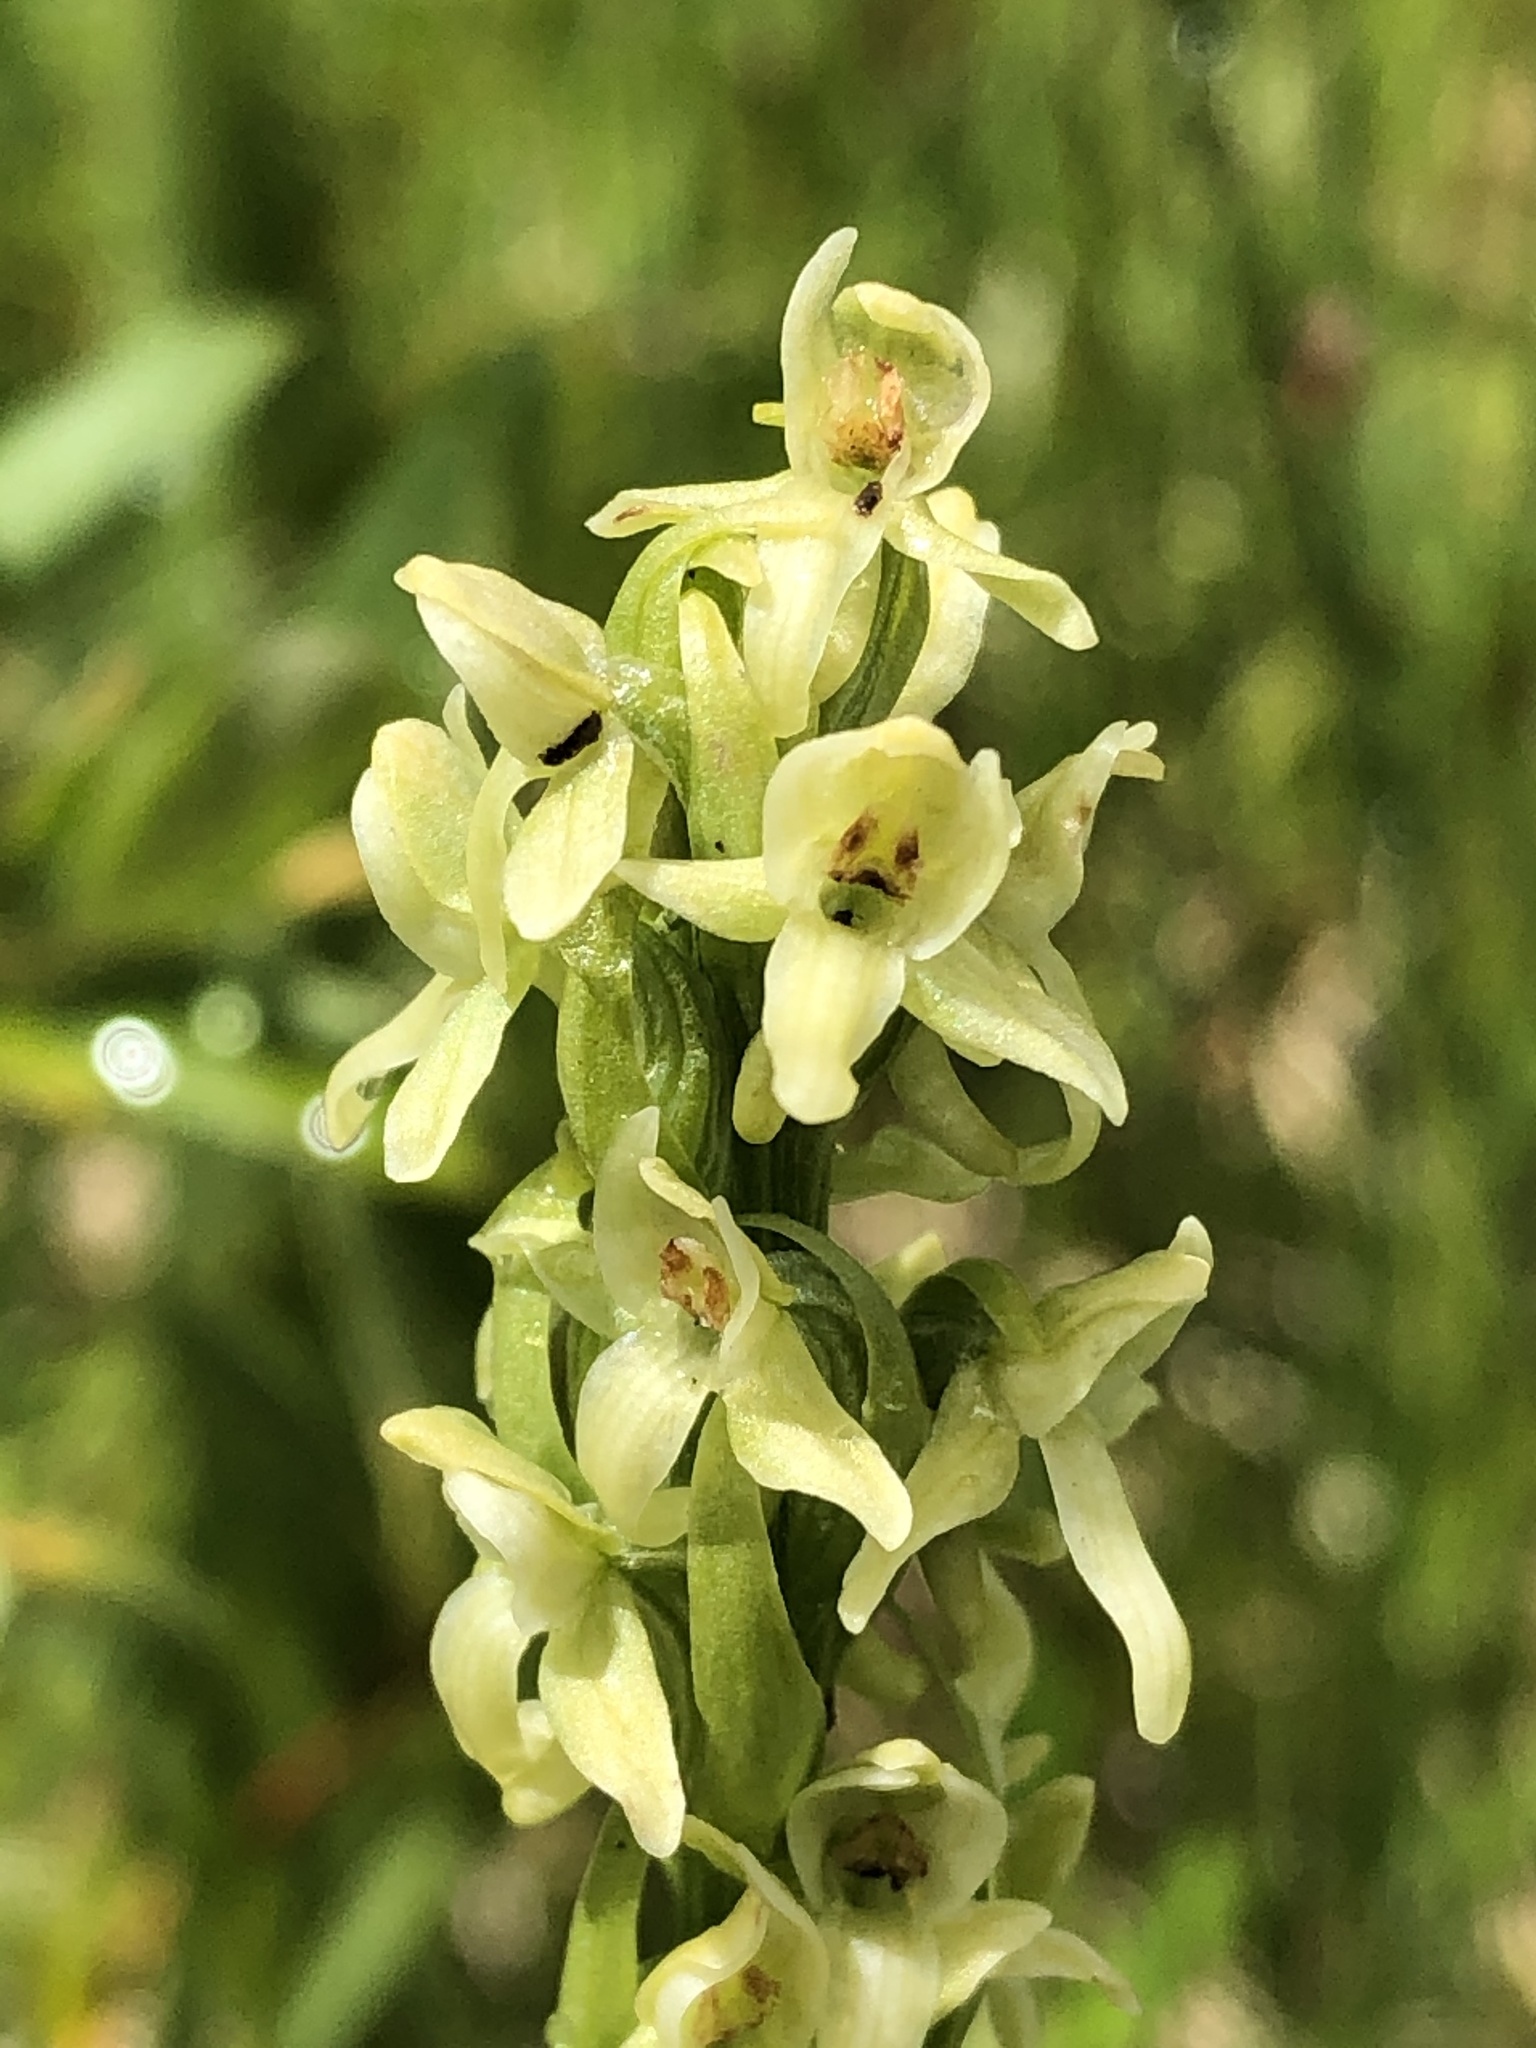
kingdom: Plantae
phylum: Tracheophyta
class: Liliopsida
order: Asparagales
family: Orchidaceae
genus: Platanthera
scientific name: Platanthera huronensis
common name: Fragrant green orchid
